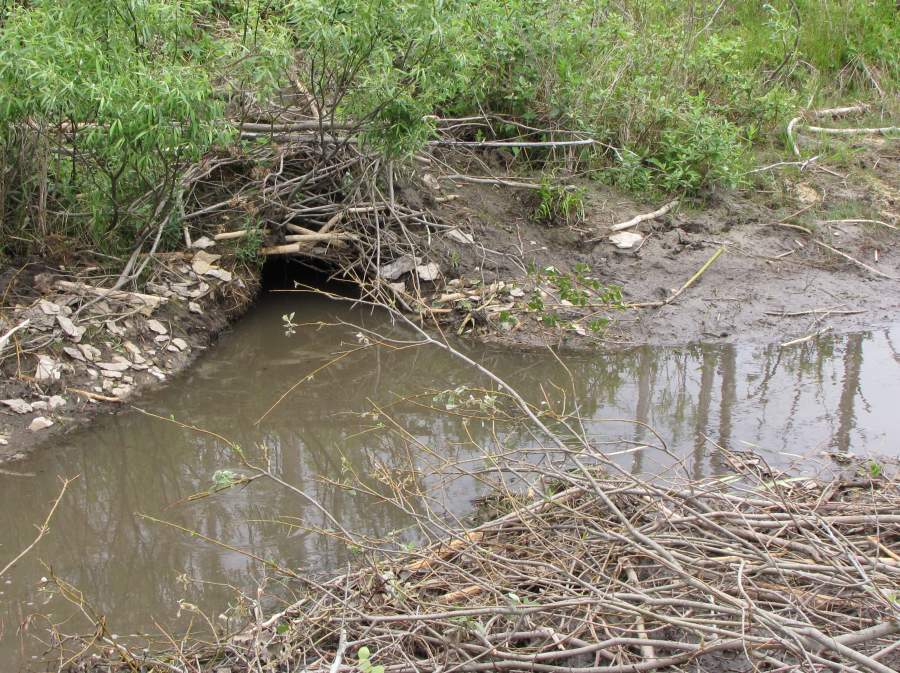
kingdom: Animalia
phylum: Chordata
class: Mammalia
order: Rodentia
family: Castoridae
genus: Castor
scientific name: Castor canadensis
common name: American beaver
